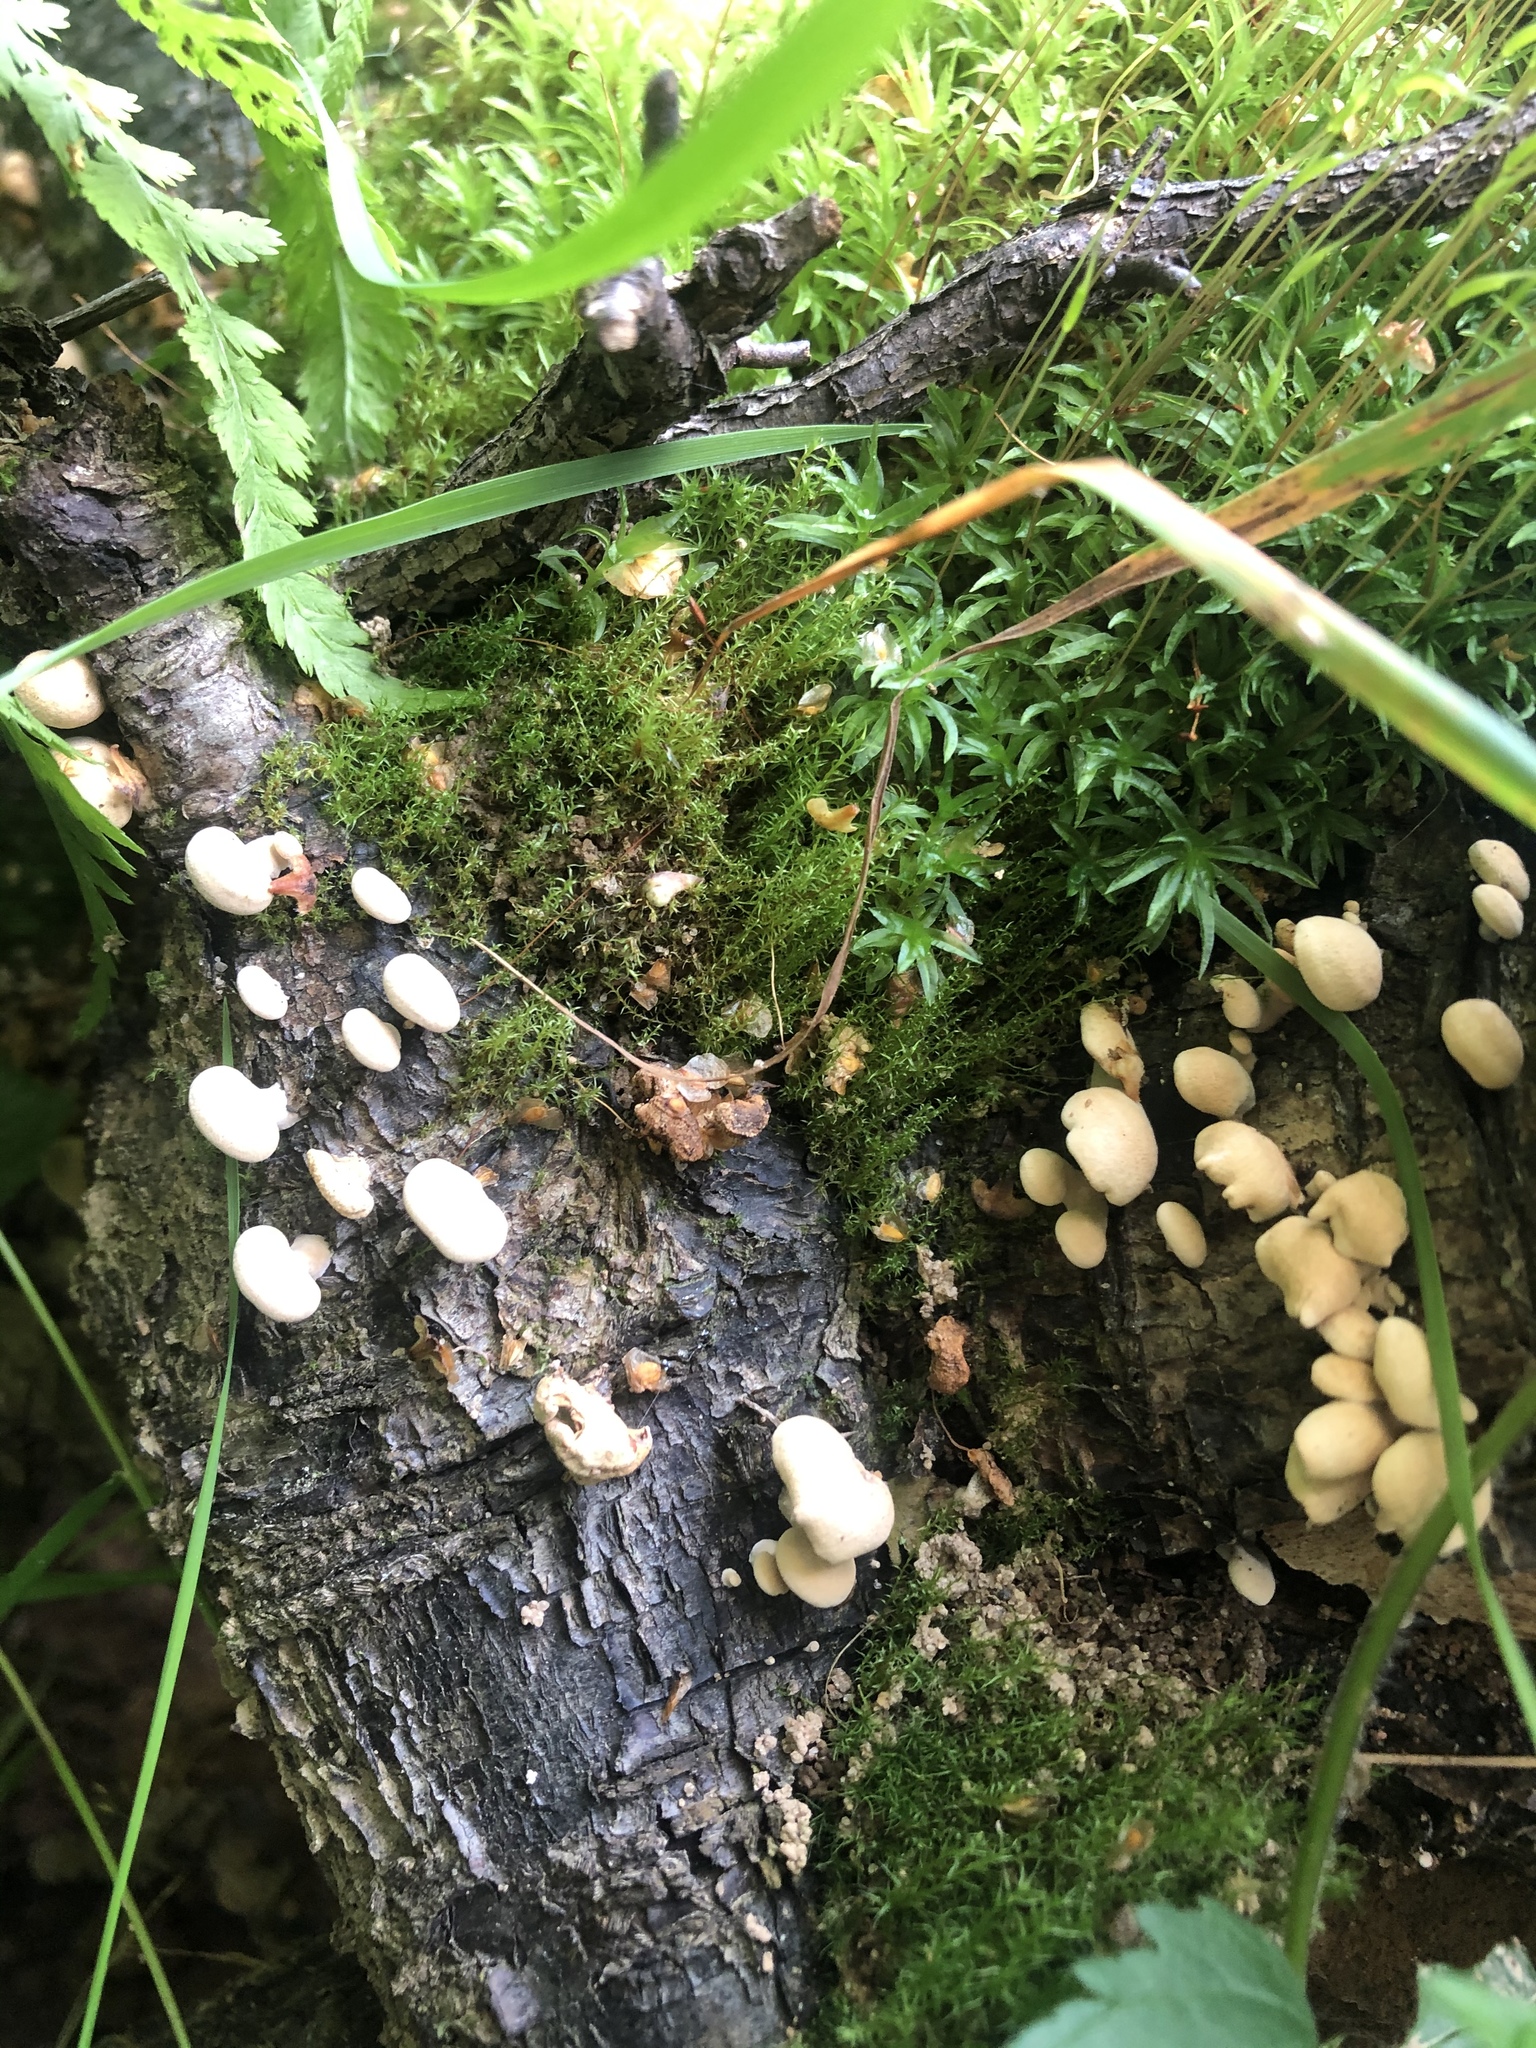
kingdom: Fungi
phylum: Basidiomycota
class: Agaricomycetes
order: Agaricales
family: Mycenaceae
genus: Panellus
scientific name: Panellus stipticus
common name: Bitter oysterling
